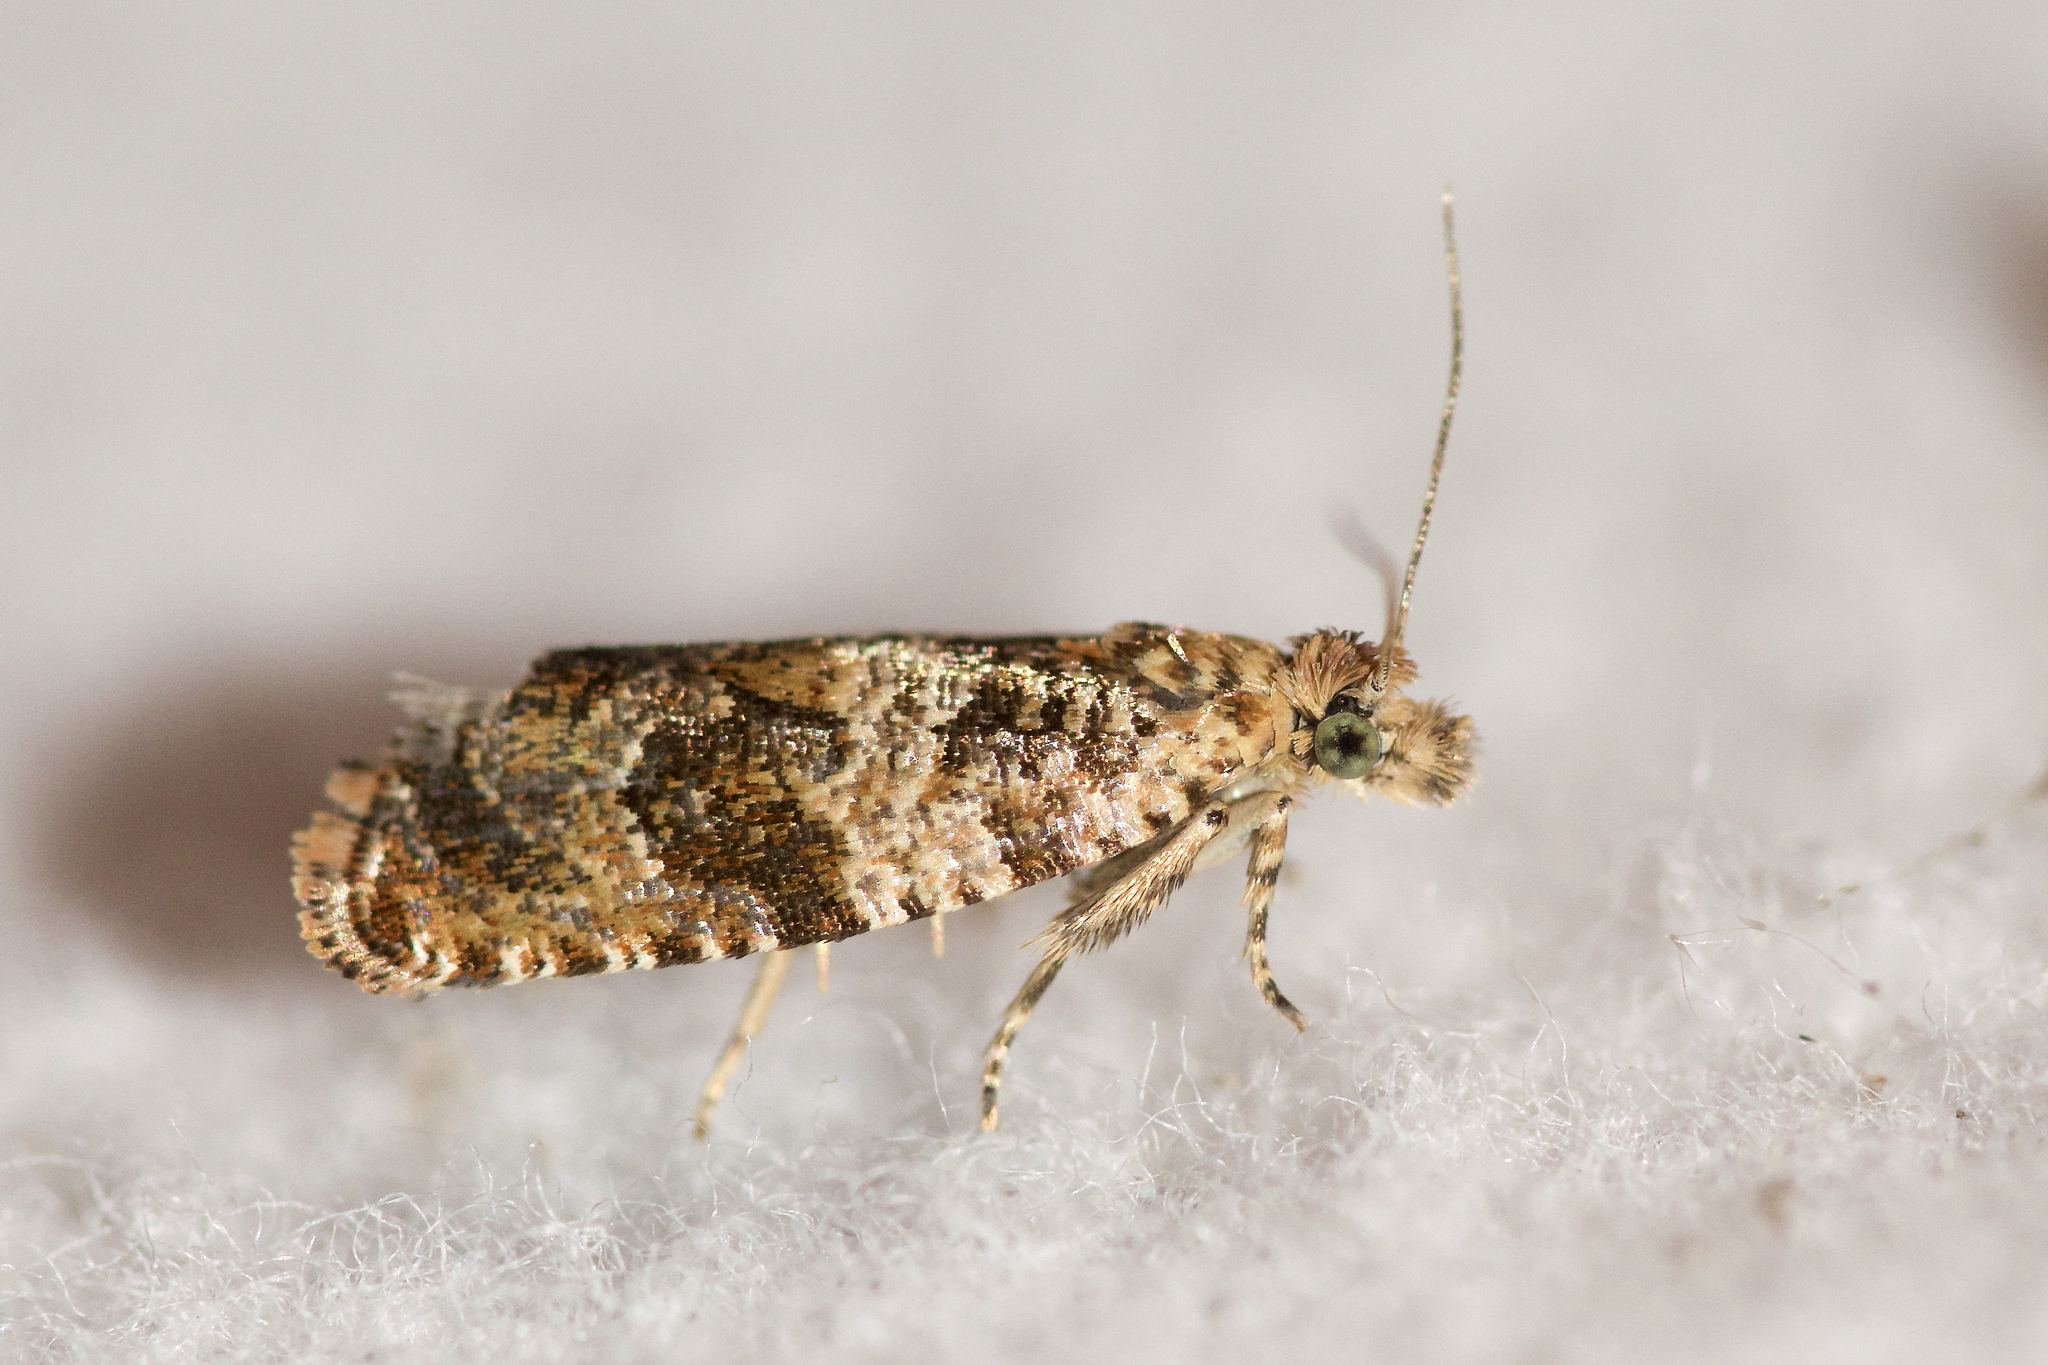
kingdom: Animalia
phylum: Arthropoda
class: Insecta
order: Lepidoptera
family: Tortricidae
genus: Celypha
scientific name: Celypha cespitana
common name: Thyme marble
